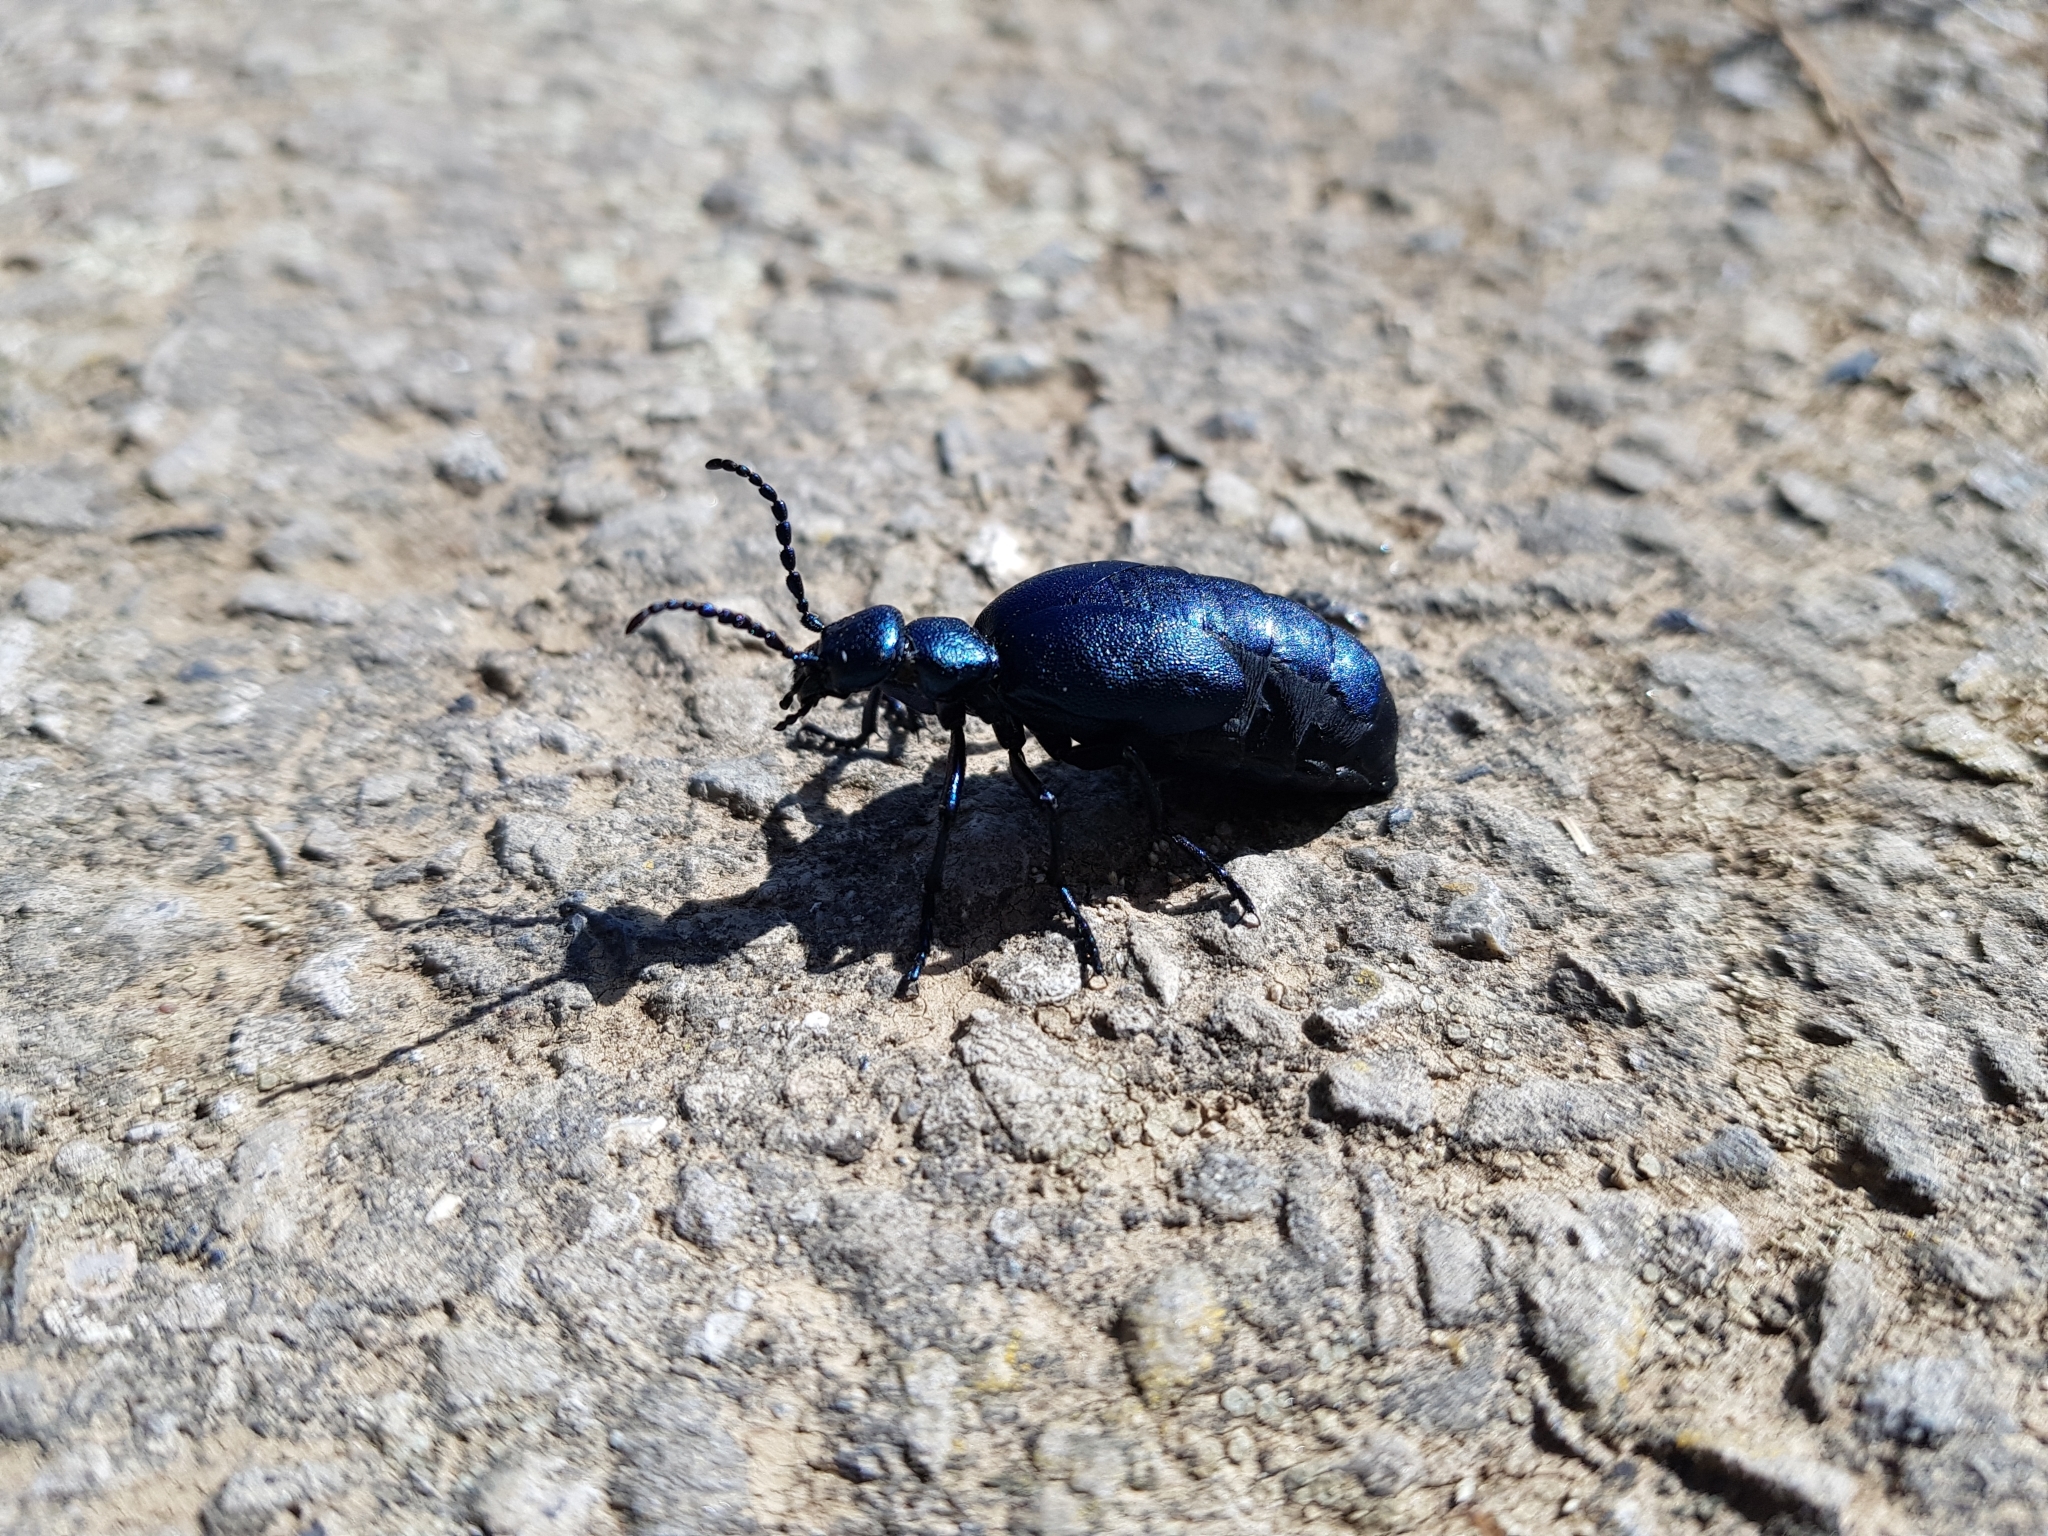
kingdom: Animalia
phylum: Arthropoda
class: Insecta
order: Coleoptera
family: Meloidae
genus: Meloe
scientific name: Meloe violaceus
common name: Violet oil-beetle
